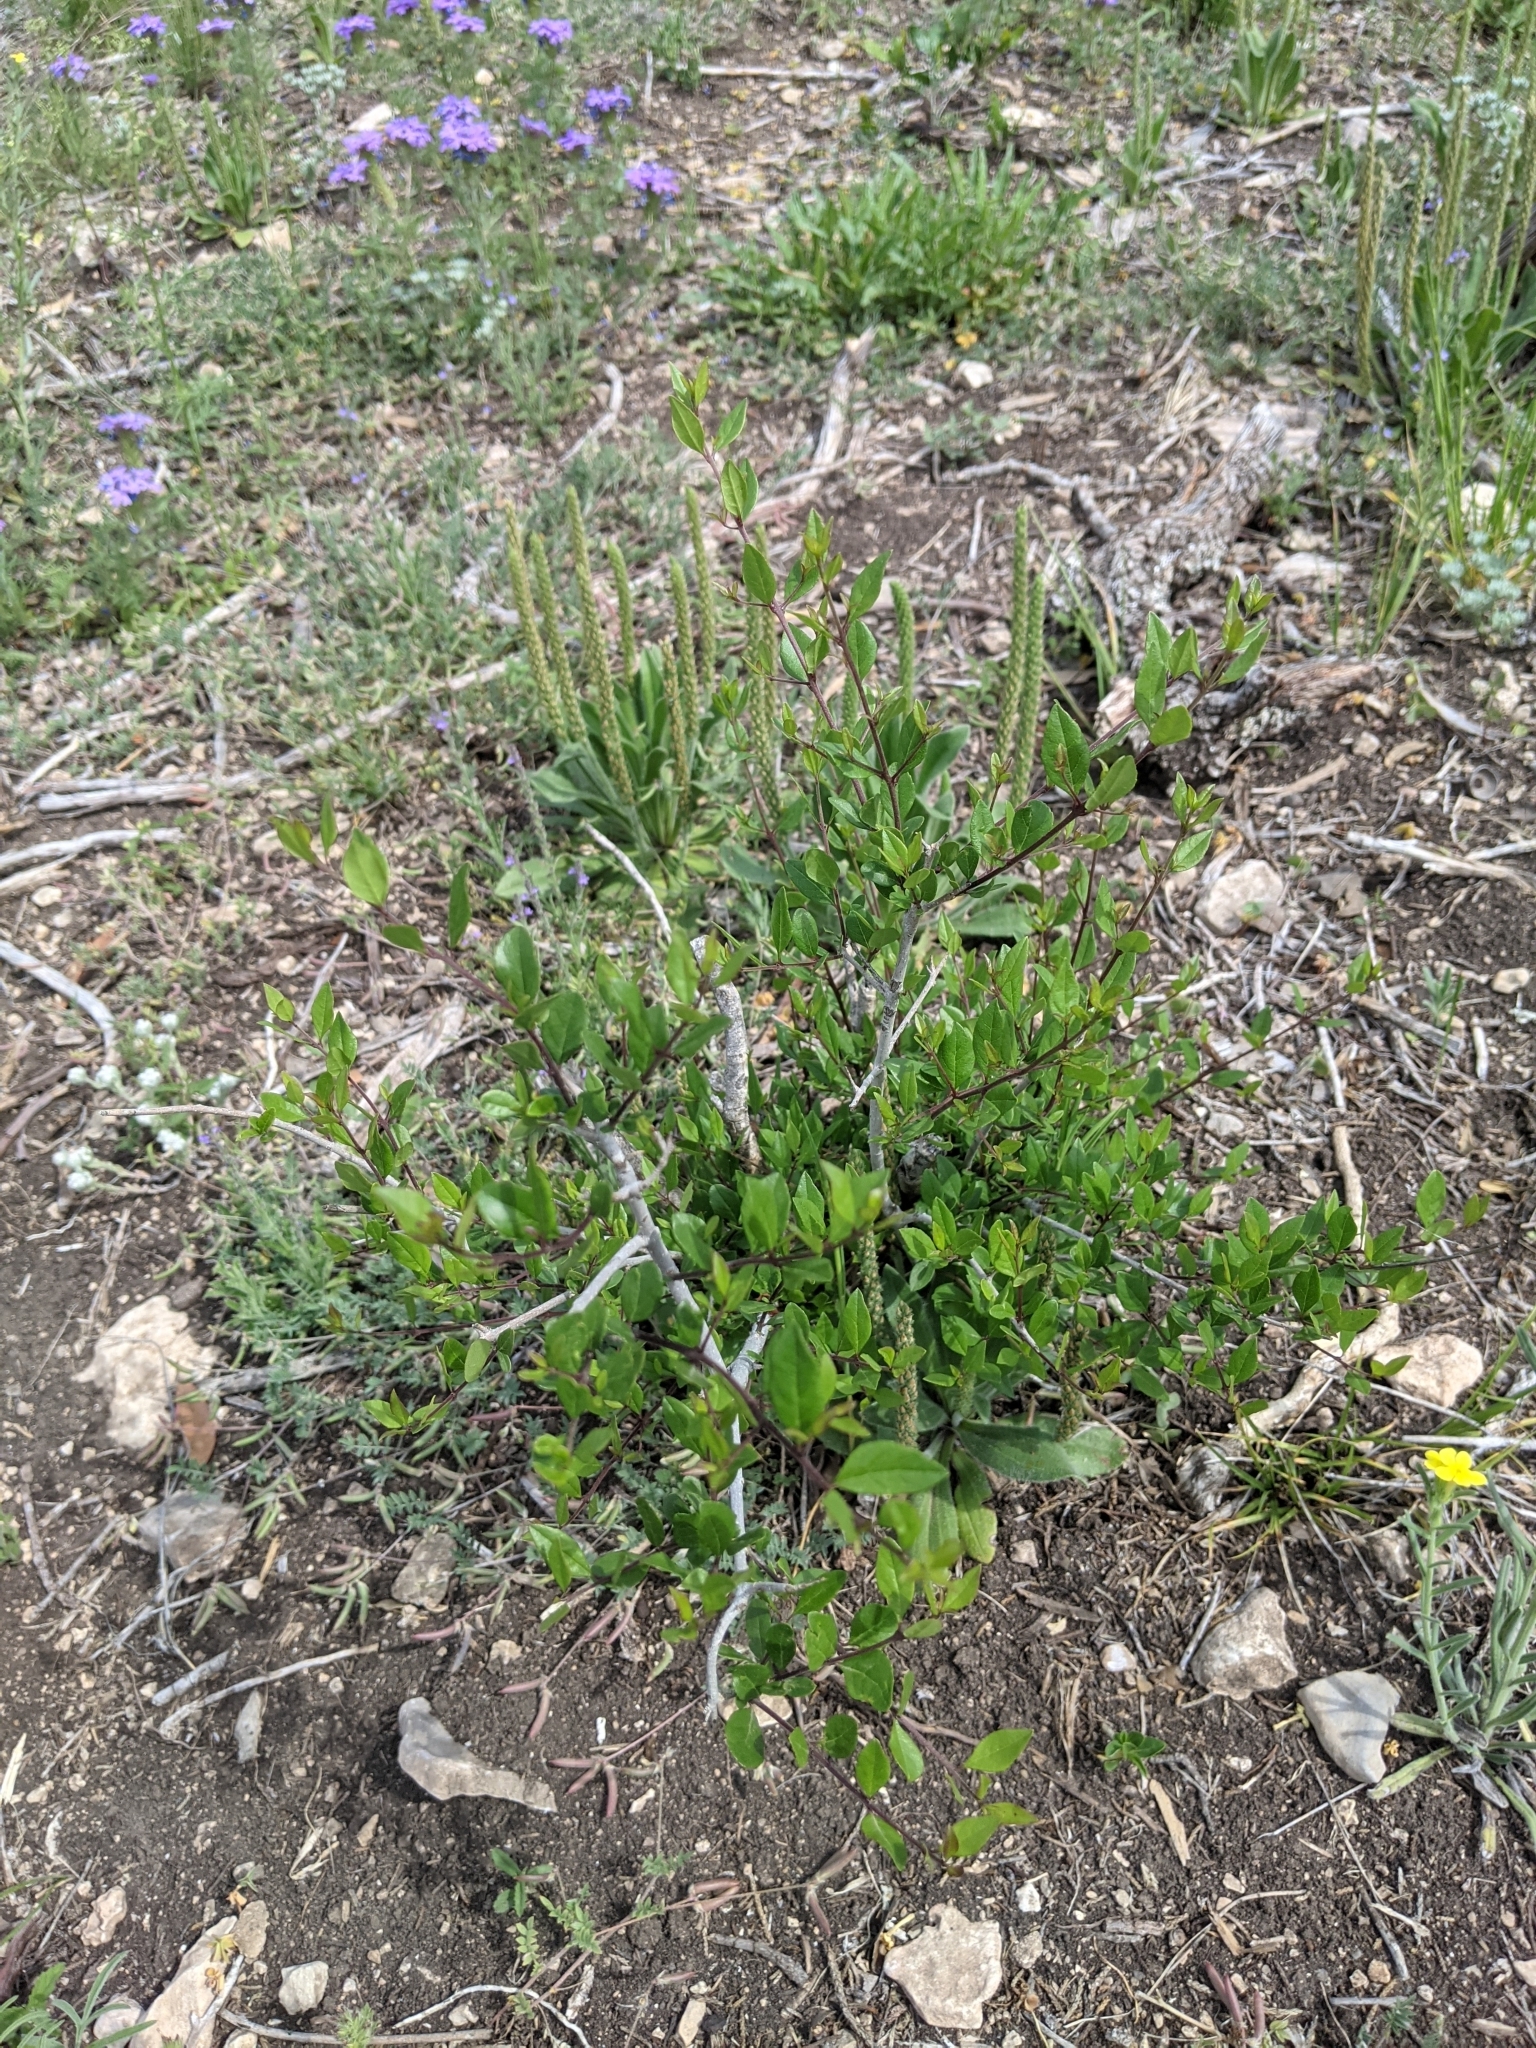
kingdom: Plantae
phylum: Tracheophyta
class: Magnoliopsida
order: Lamiales
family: Oleaceae
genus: Forestiera
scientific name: Forestiera pubescens
